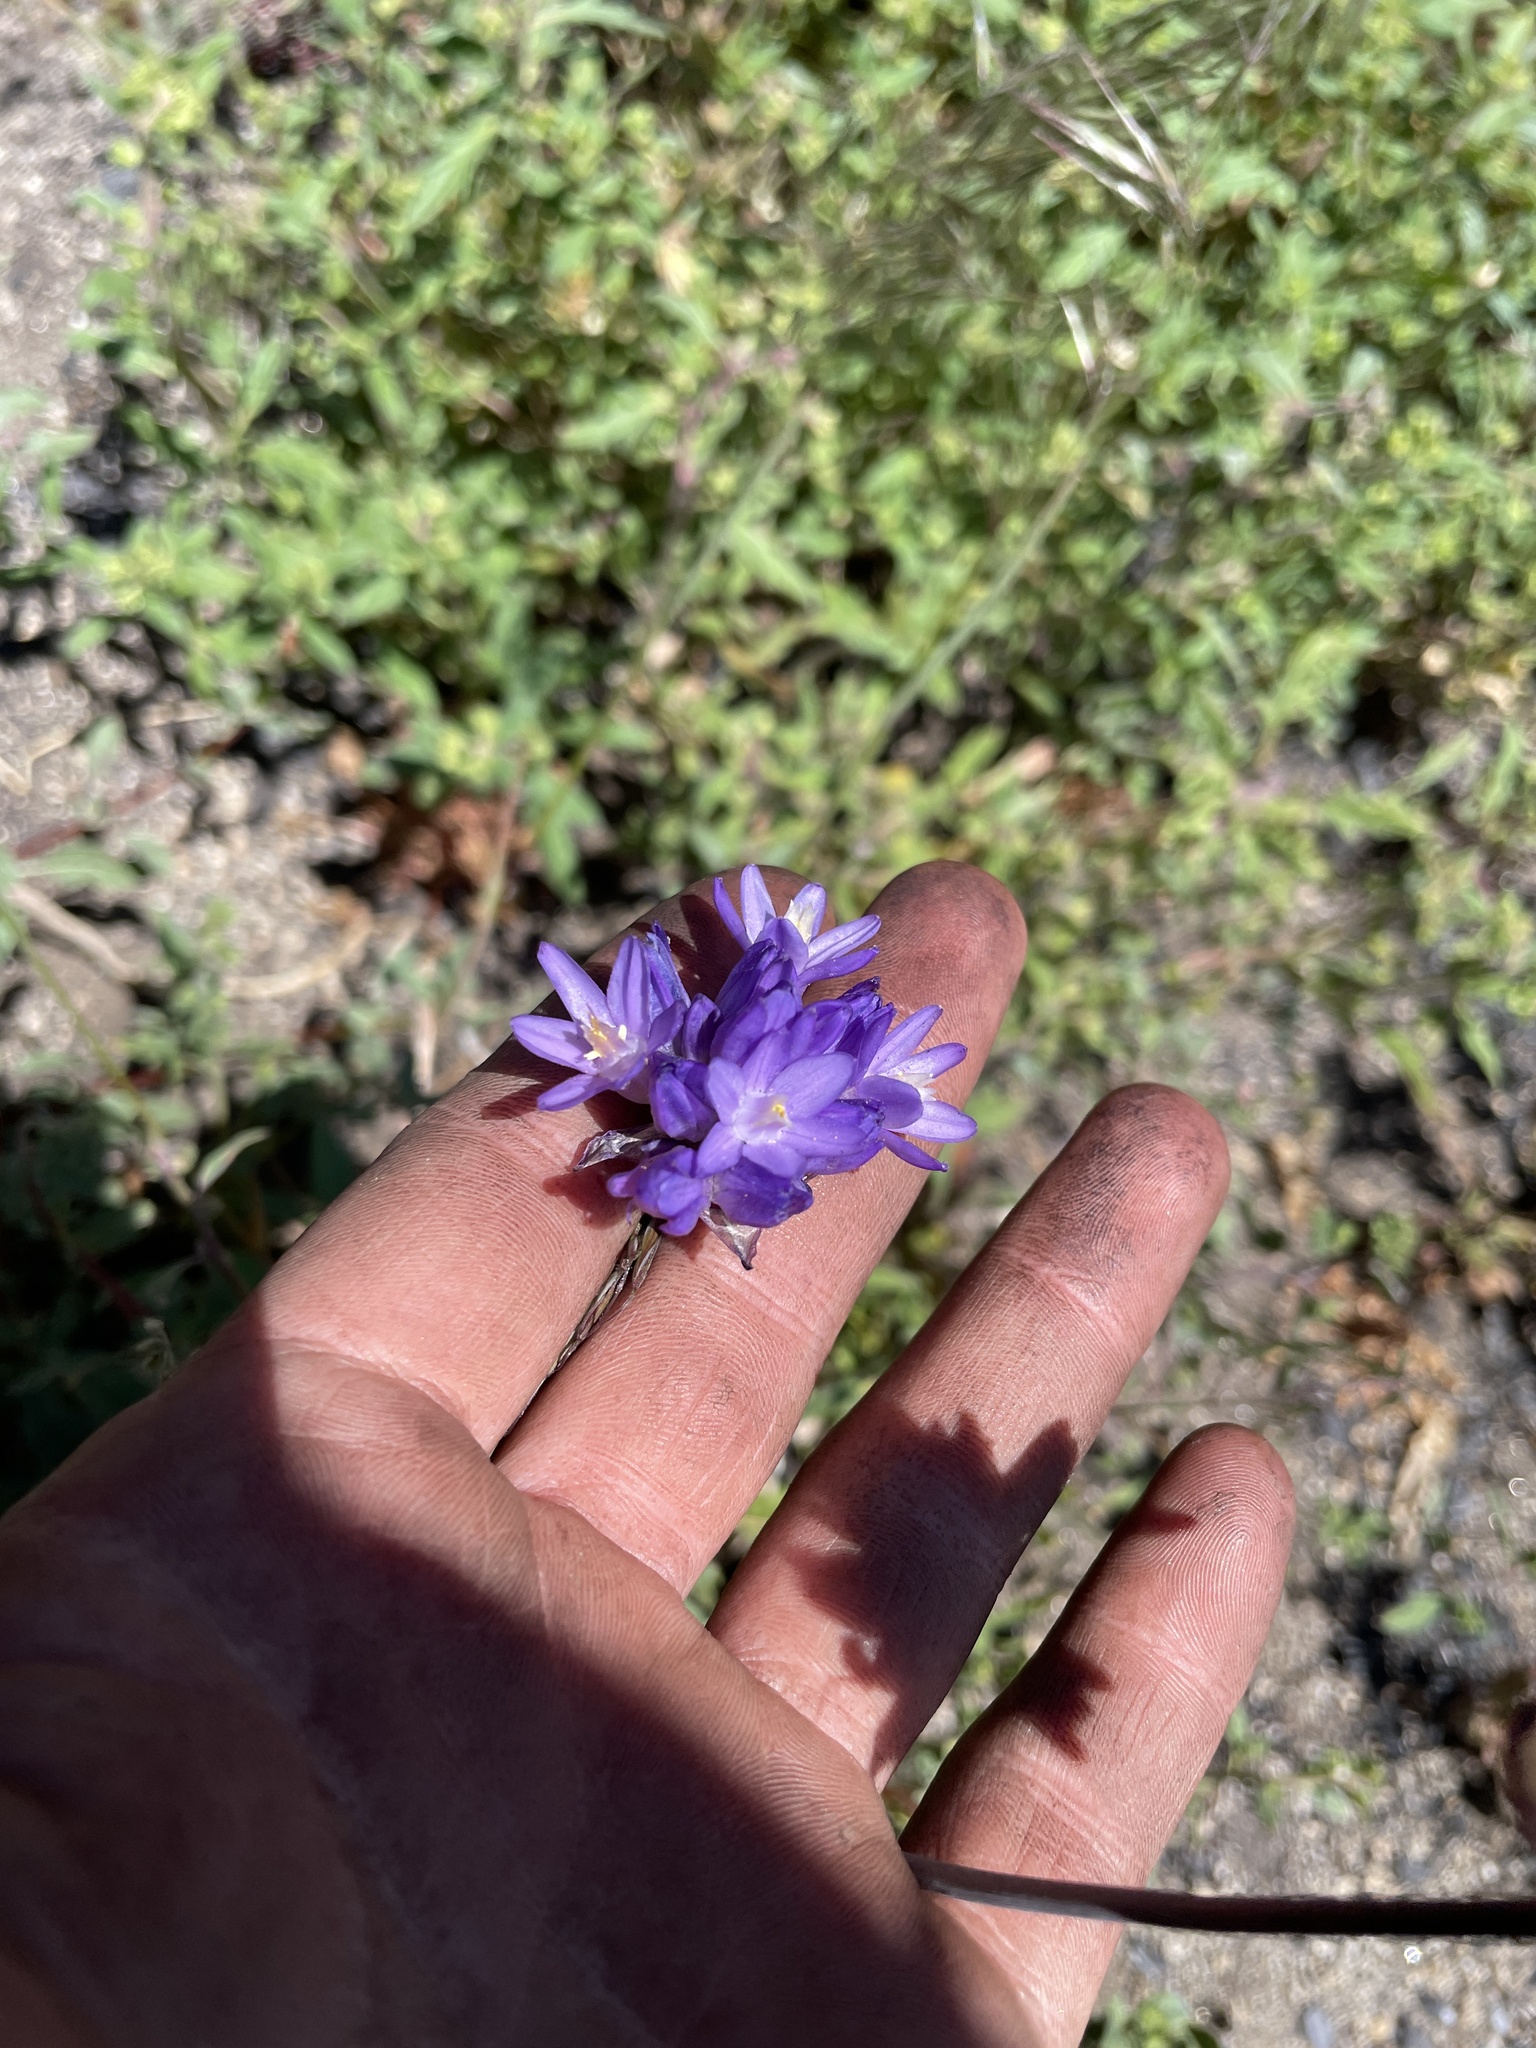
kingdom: Plantae
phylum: Tracheophyta
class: Liliopsida
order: Asparagales
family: Asparagaceae
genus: Dipterostemon
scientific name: Dipterostemon capitatus
